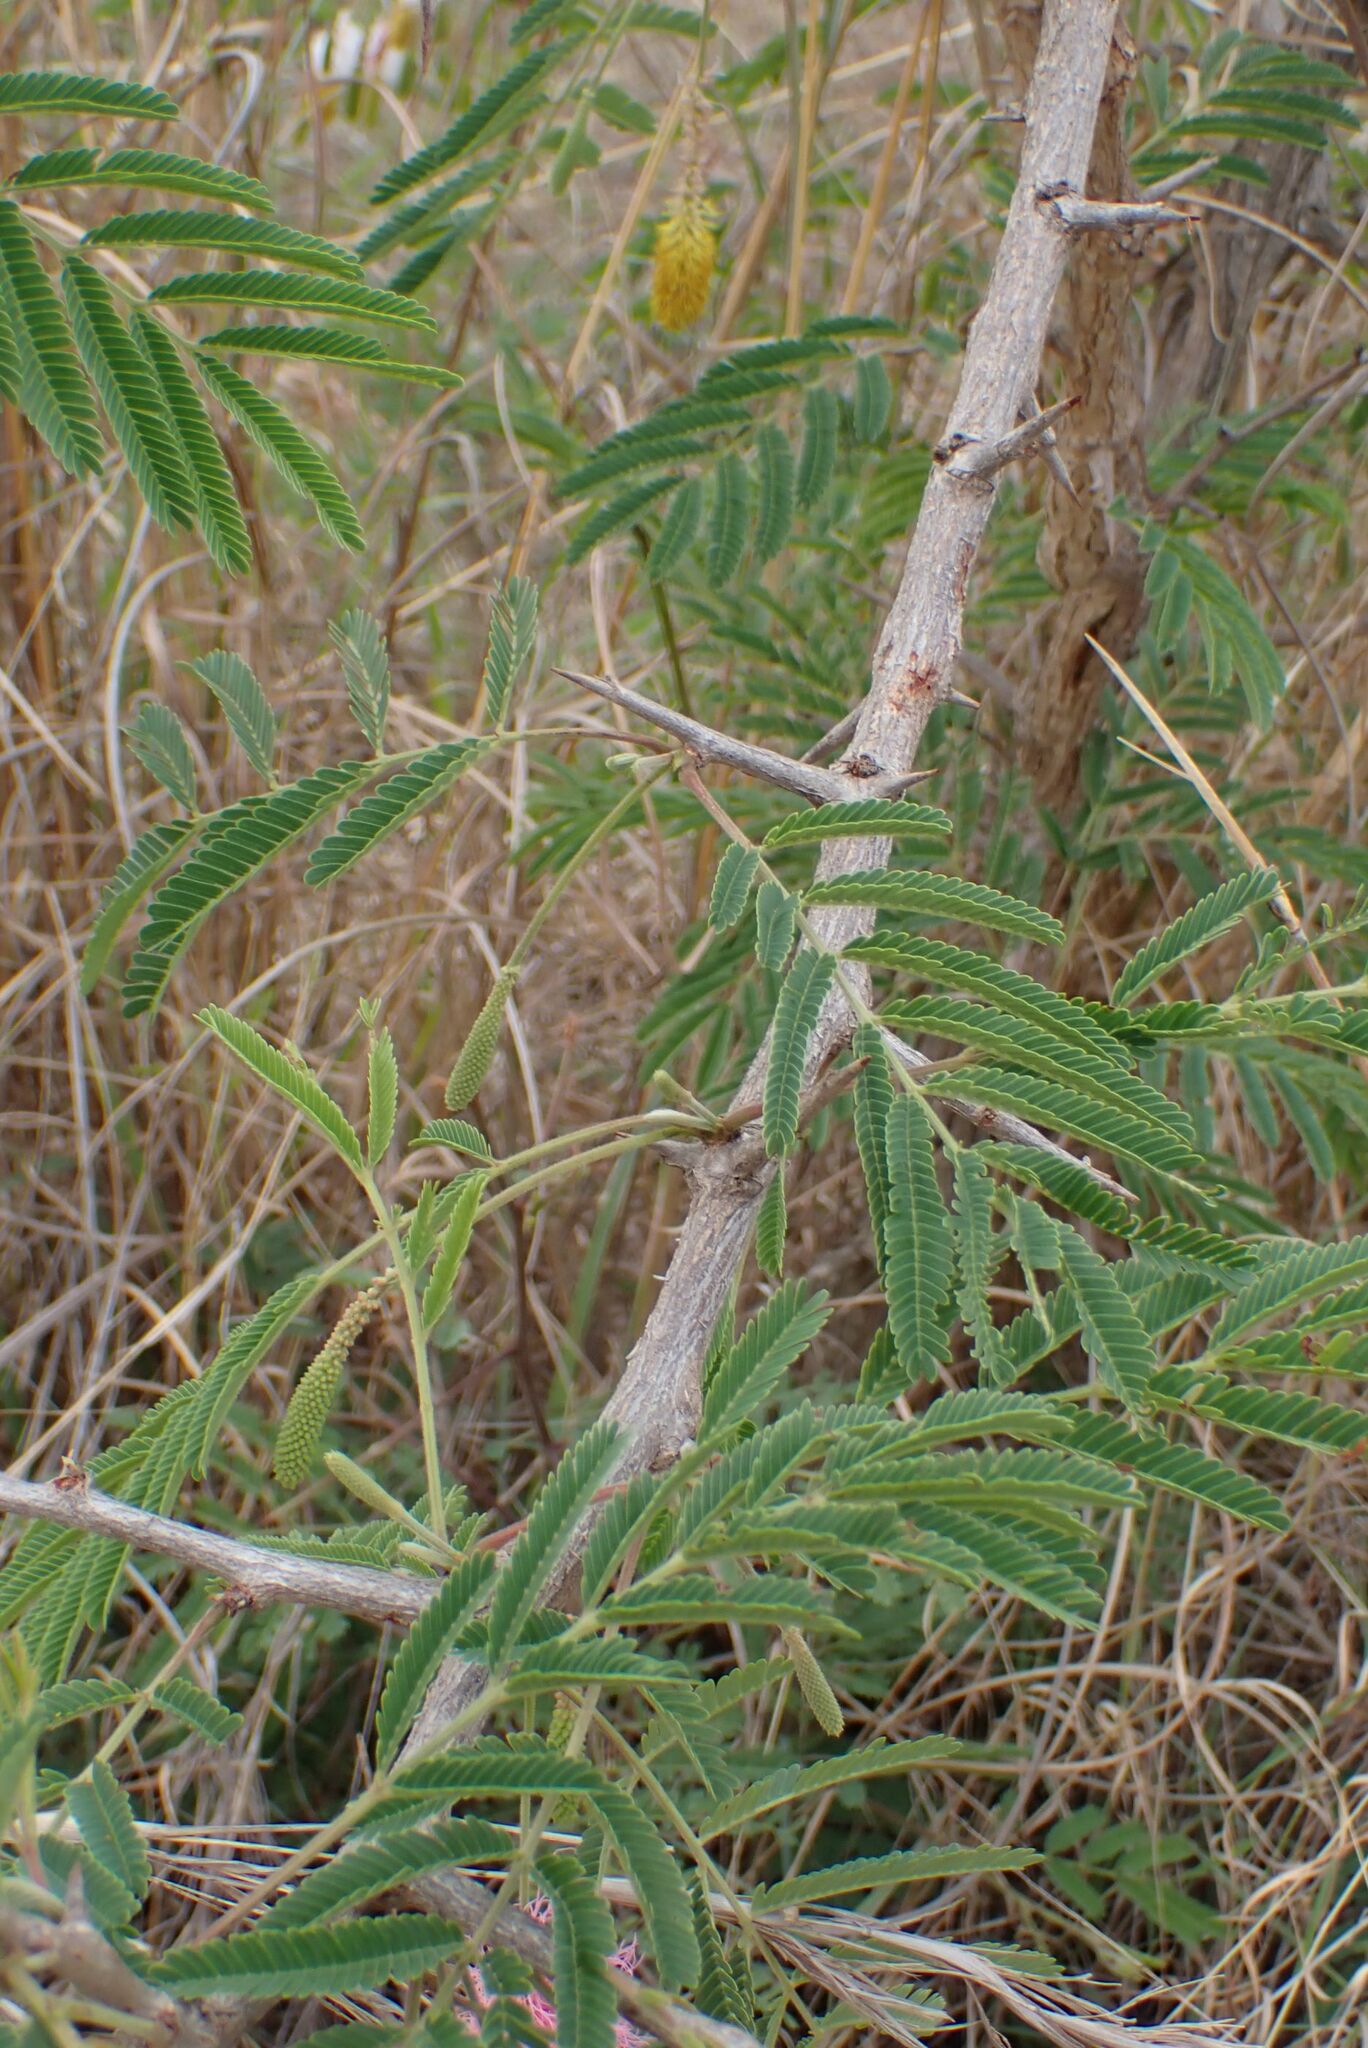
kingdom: Plantae
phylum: Tracheophyta
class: Magnoliopsida
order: Fabales
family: Fabaceae
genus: Dichrostachys
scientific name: Dichrostachys cinerea
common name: Sicklebush
